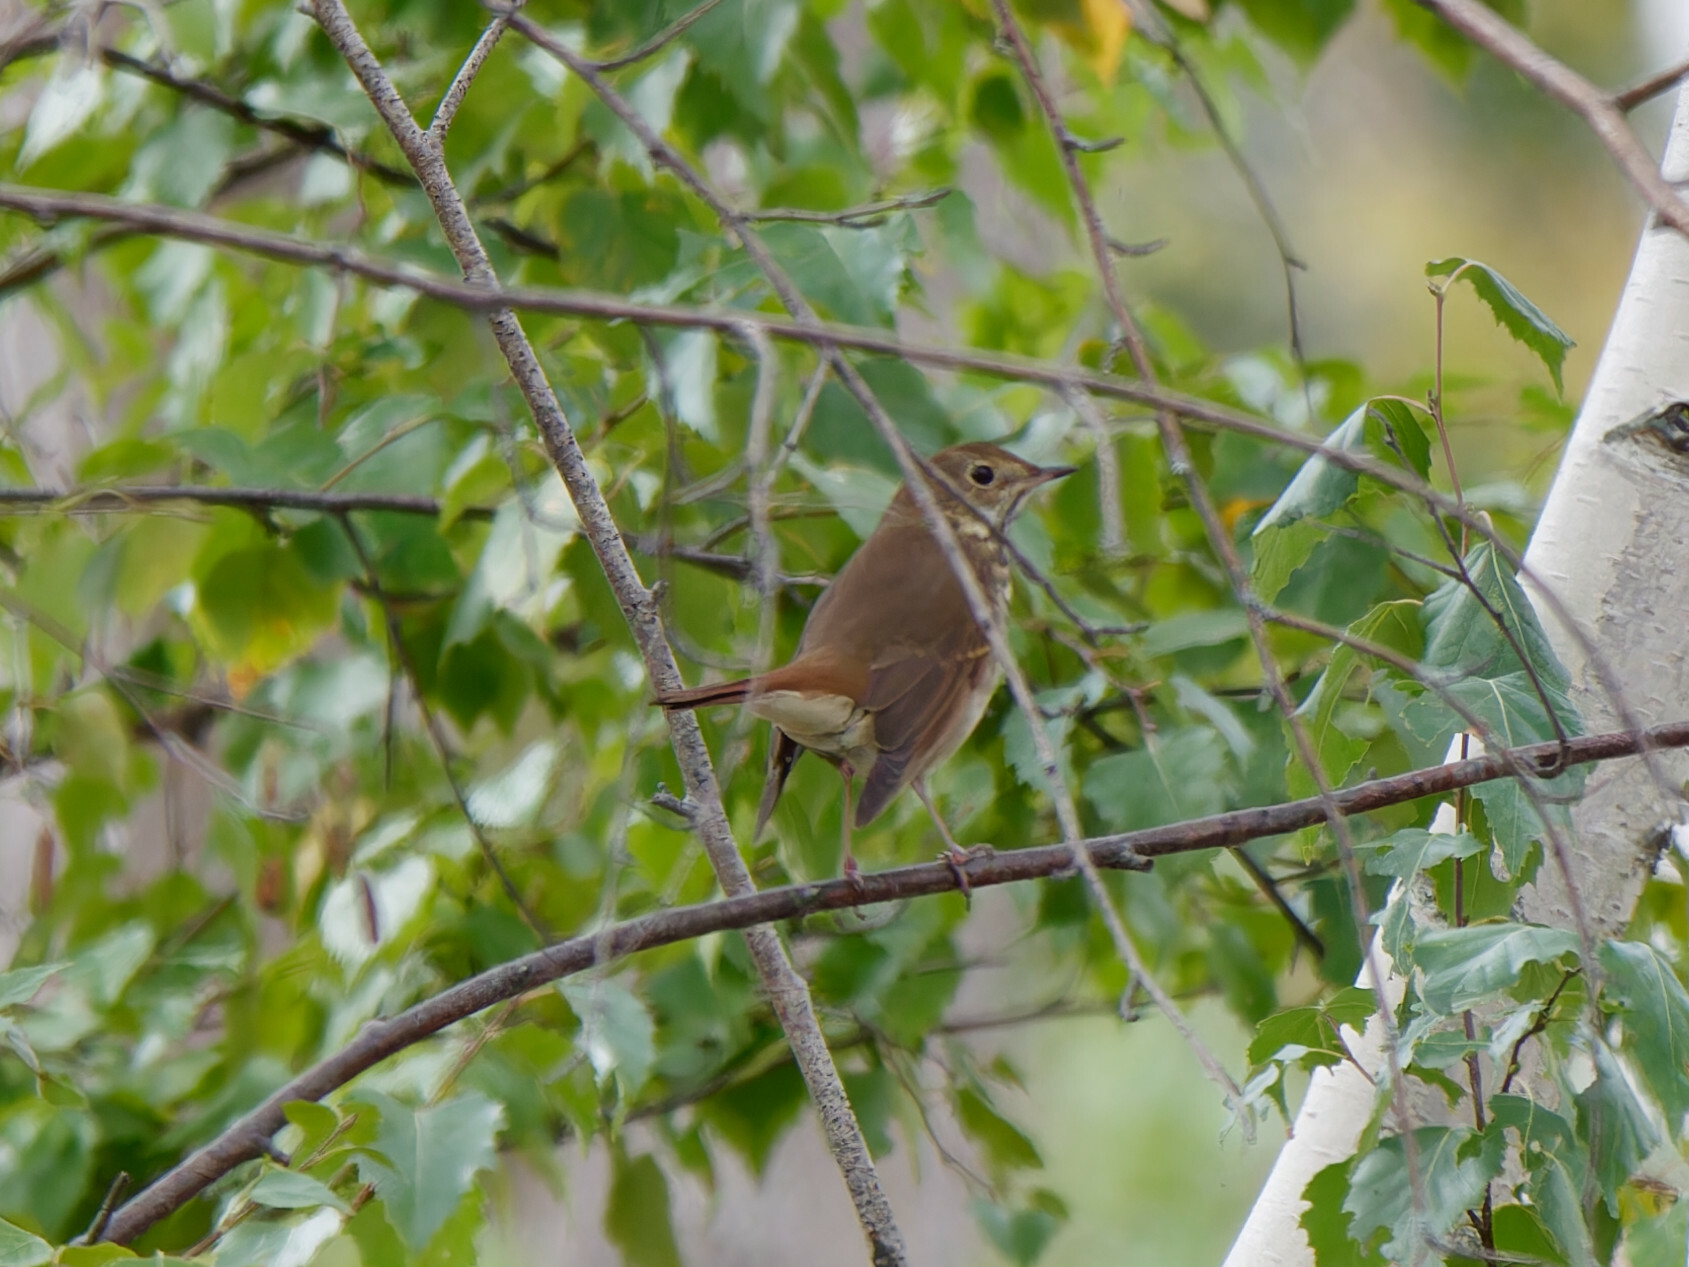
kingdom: Animalia
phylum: Chordata
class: Aves
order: Passeriformes
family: Turdidae
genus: Catharus
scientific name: Catharus guttatus
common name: Hermit thrush
